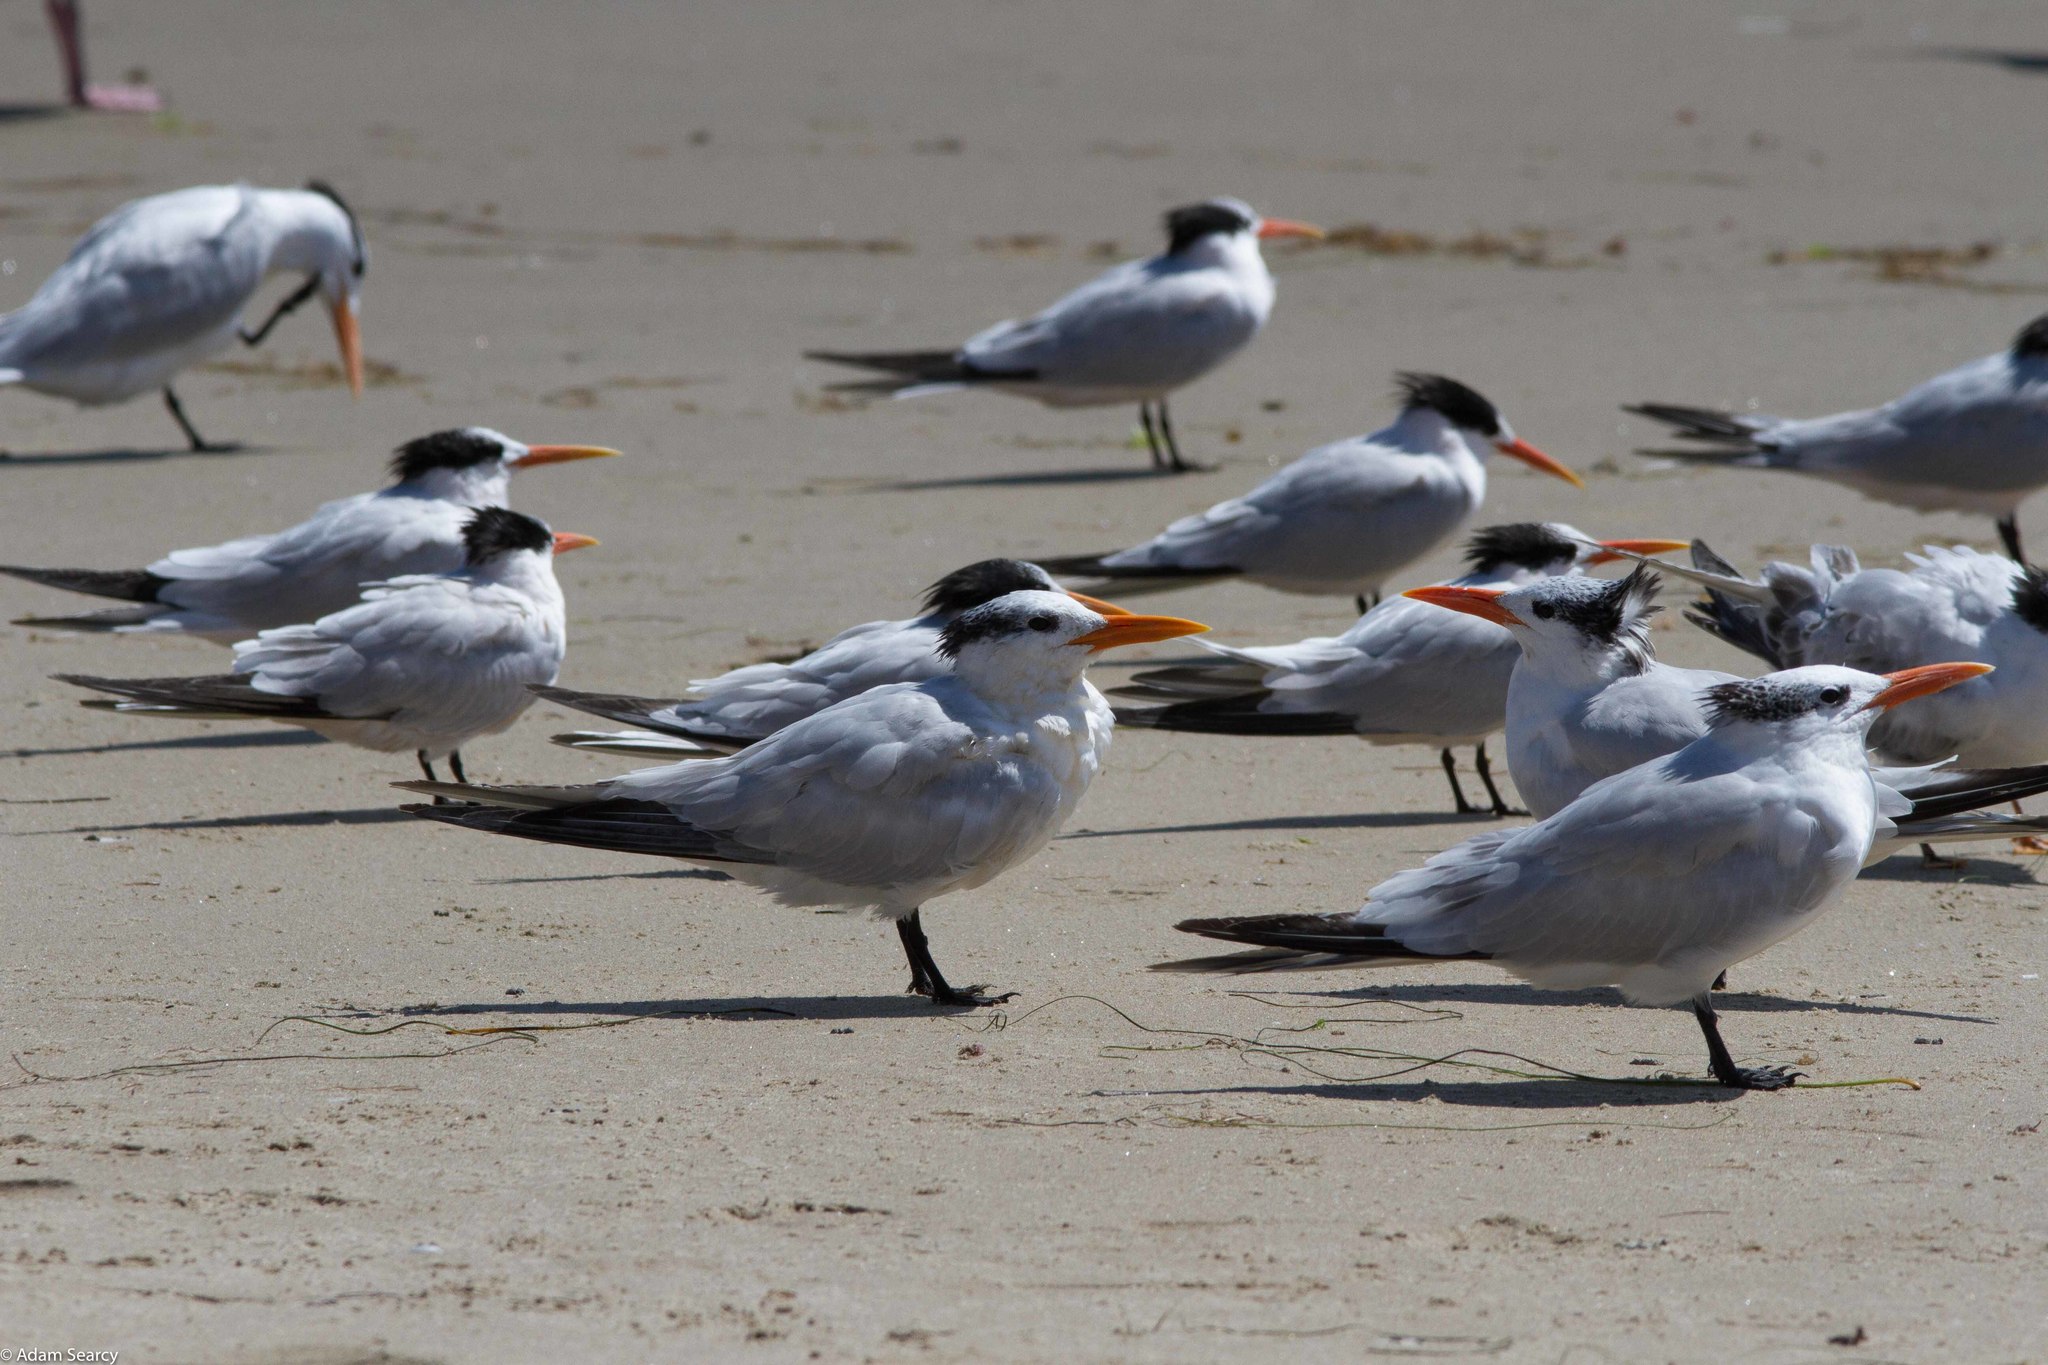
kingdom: Animalia
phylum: Chordata
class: Aves
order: Charadriiformes
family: Laridae
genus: Thalasseus
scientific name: Thalasseus maximus
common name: Royal tern
